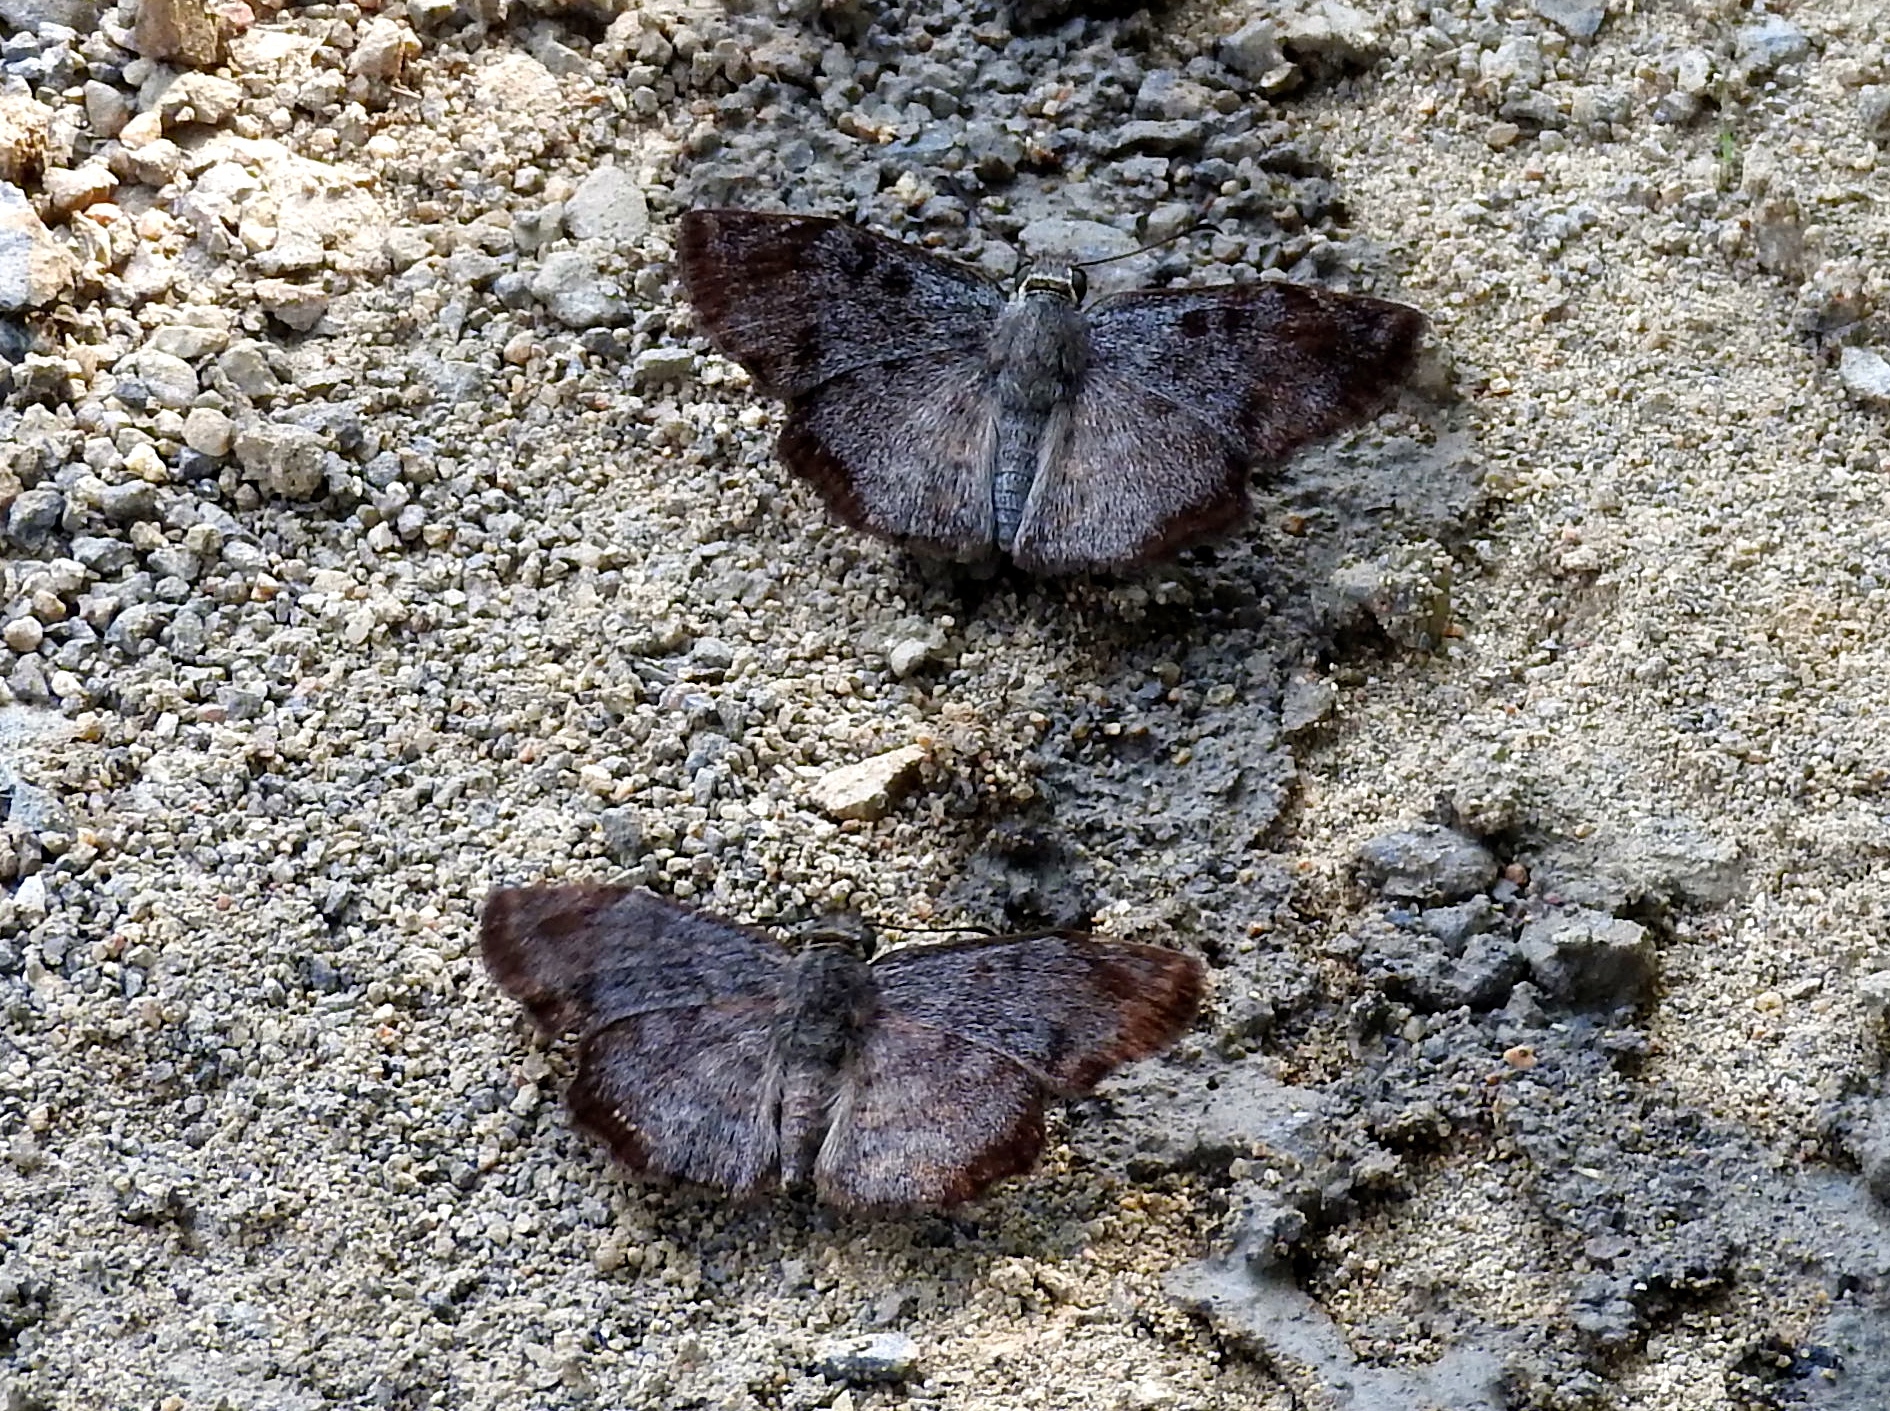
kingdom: Animalia
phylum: Arthropoda
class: Insecta
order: Lepidoptera
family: Hesperiidae
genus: Antigonus
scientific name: Antigonus erosus
